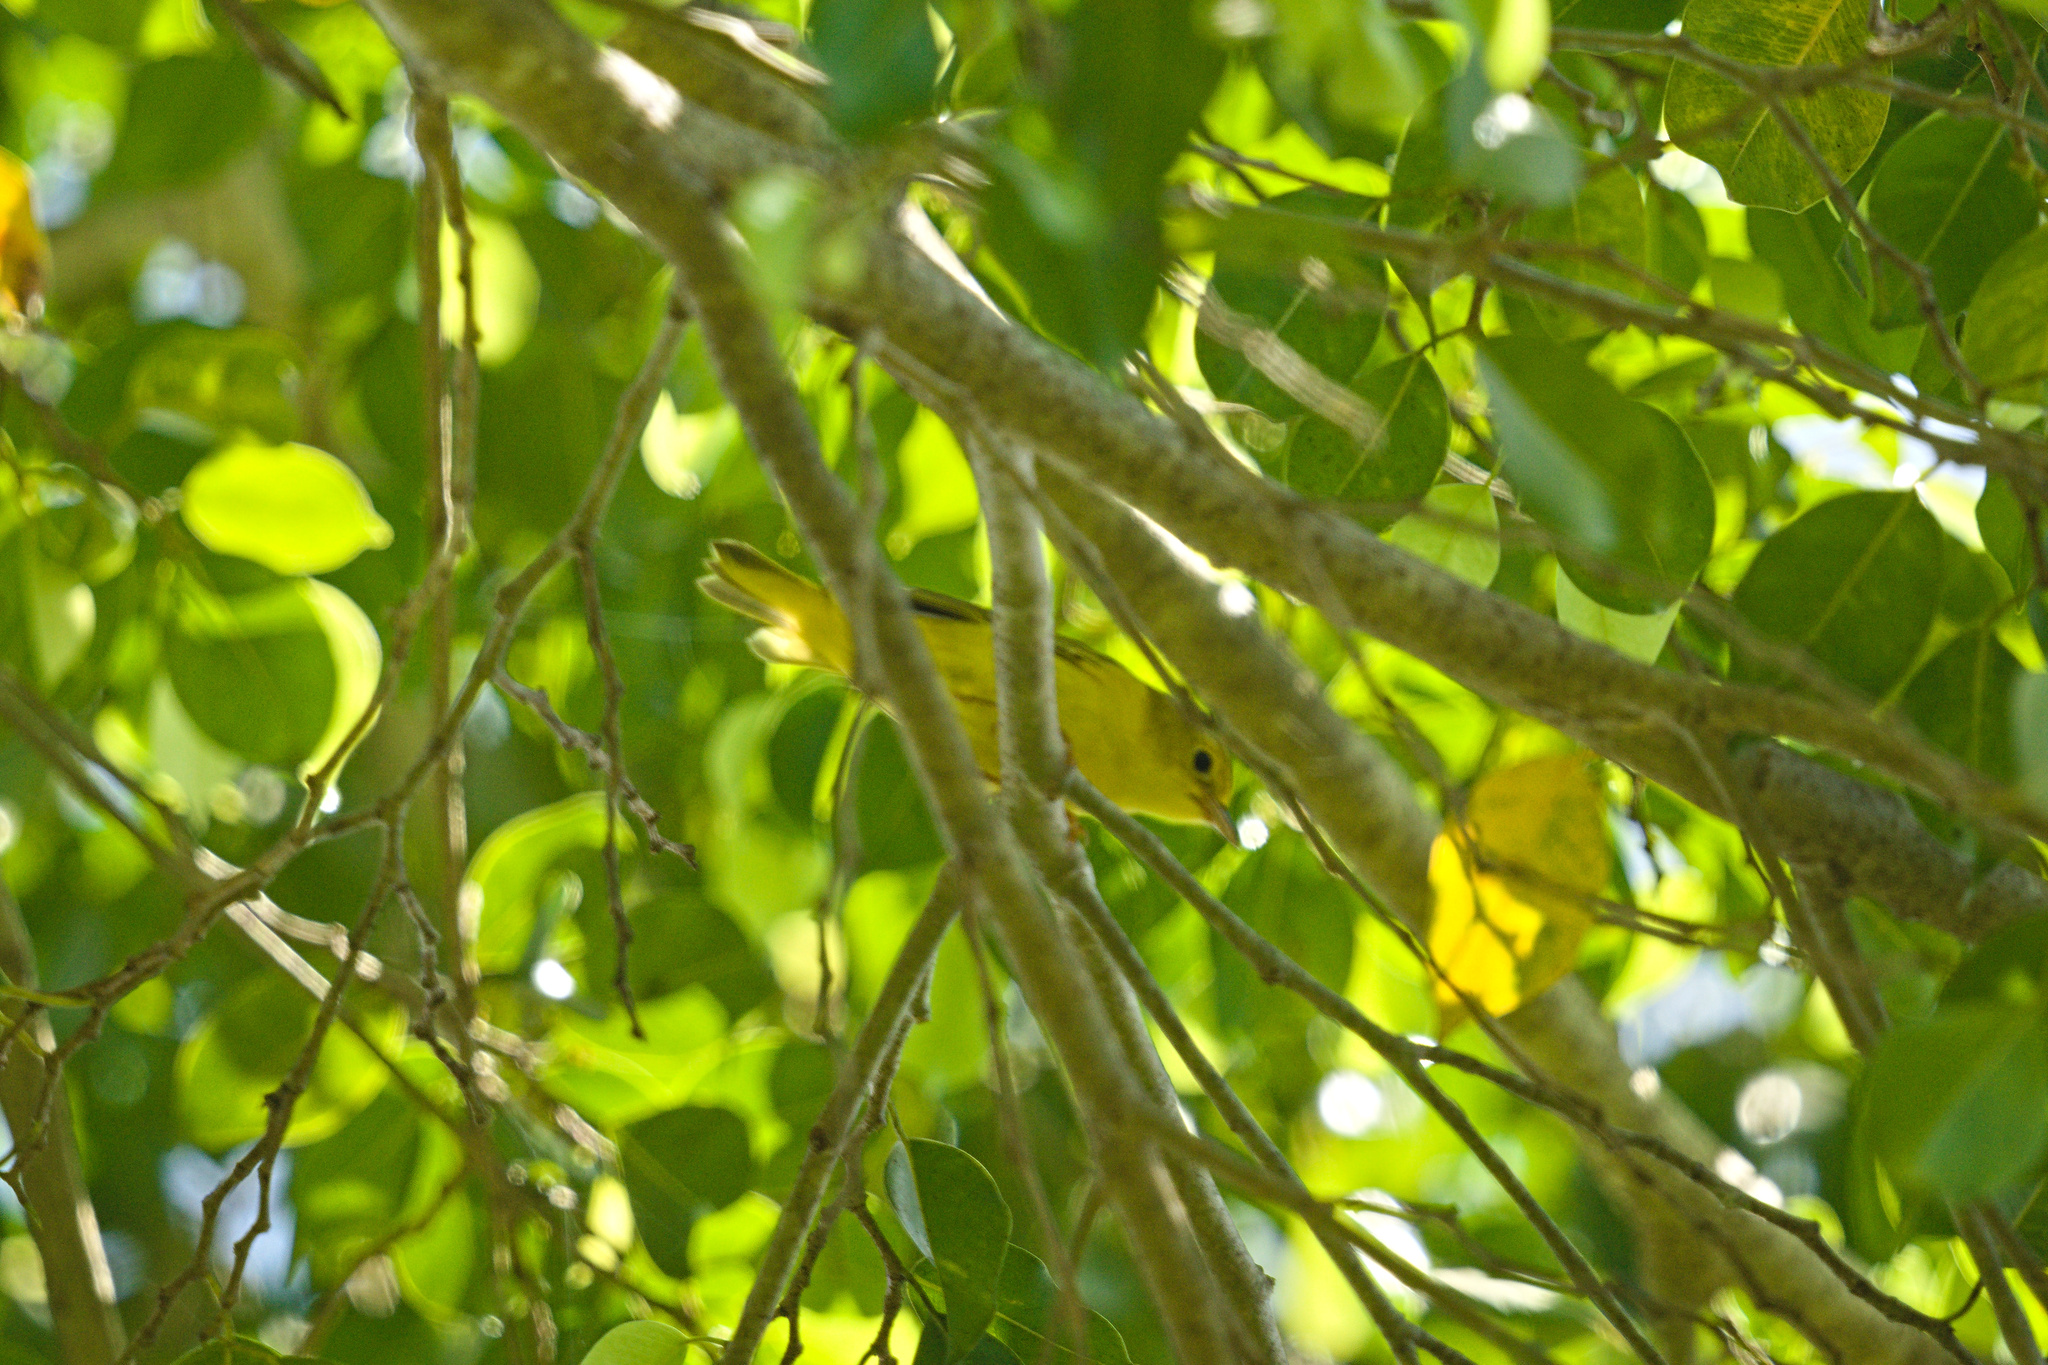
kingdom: Animalia
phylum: Chordata
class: Aves
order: Passeriformes
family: Parulidae
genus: Setophaga
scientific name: Setophaga petechia
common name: Yellow warbler
